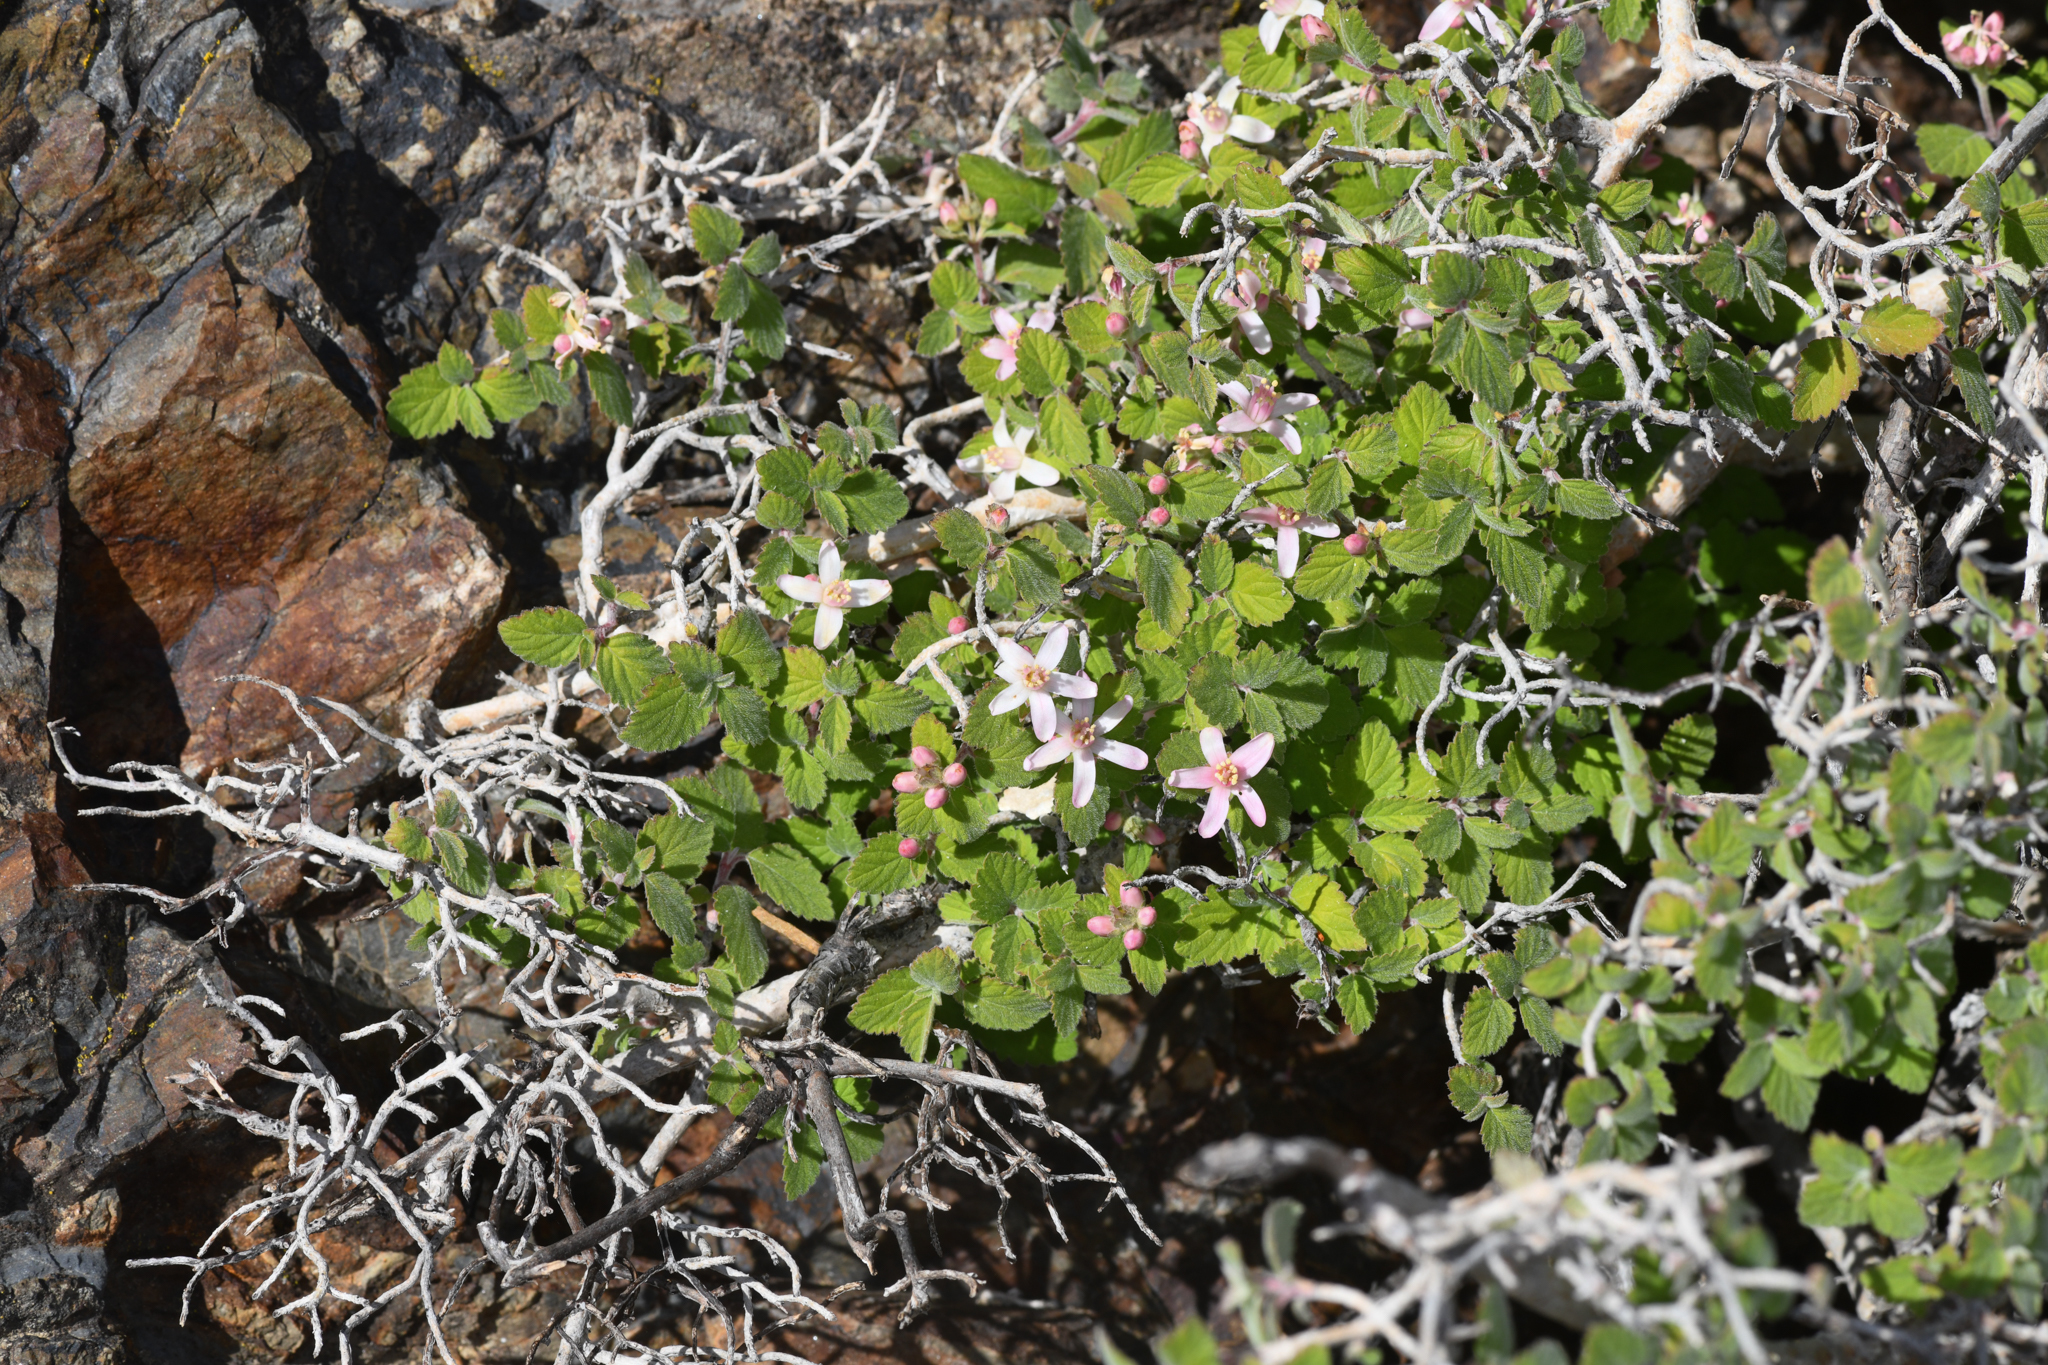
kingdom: Plantae
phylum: Tracheophyta
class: Magnoliopsida
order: Cornales
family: Hydrangeaceae
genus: Jamesia
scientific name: Jamesia americana
